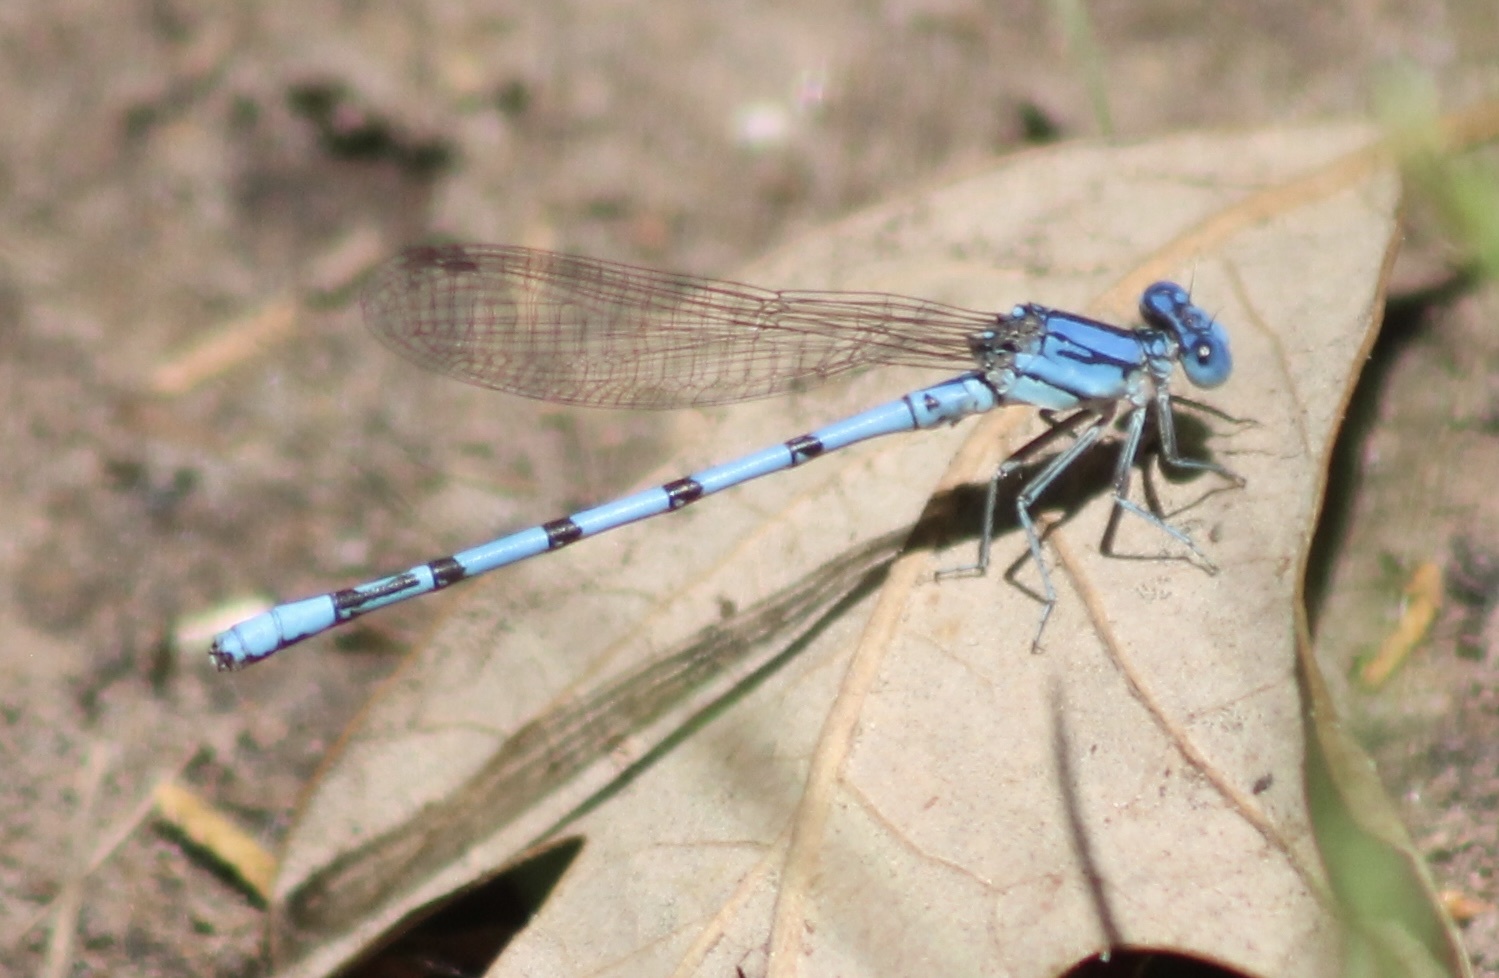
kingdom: Animalia
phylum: Arthropoda
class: Insecta
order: Odonata
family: Coenagrionidae
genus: Argia
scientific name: Argia nahuana
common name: Aztec dancer
